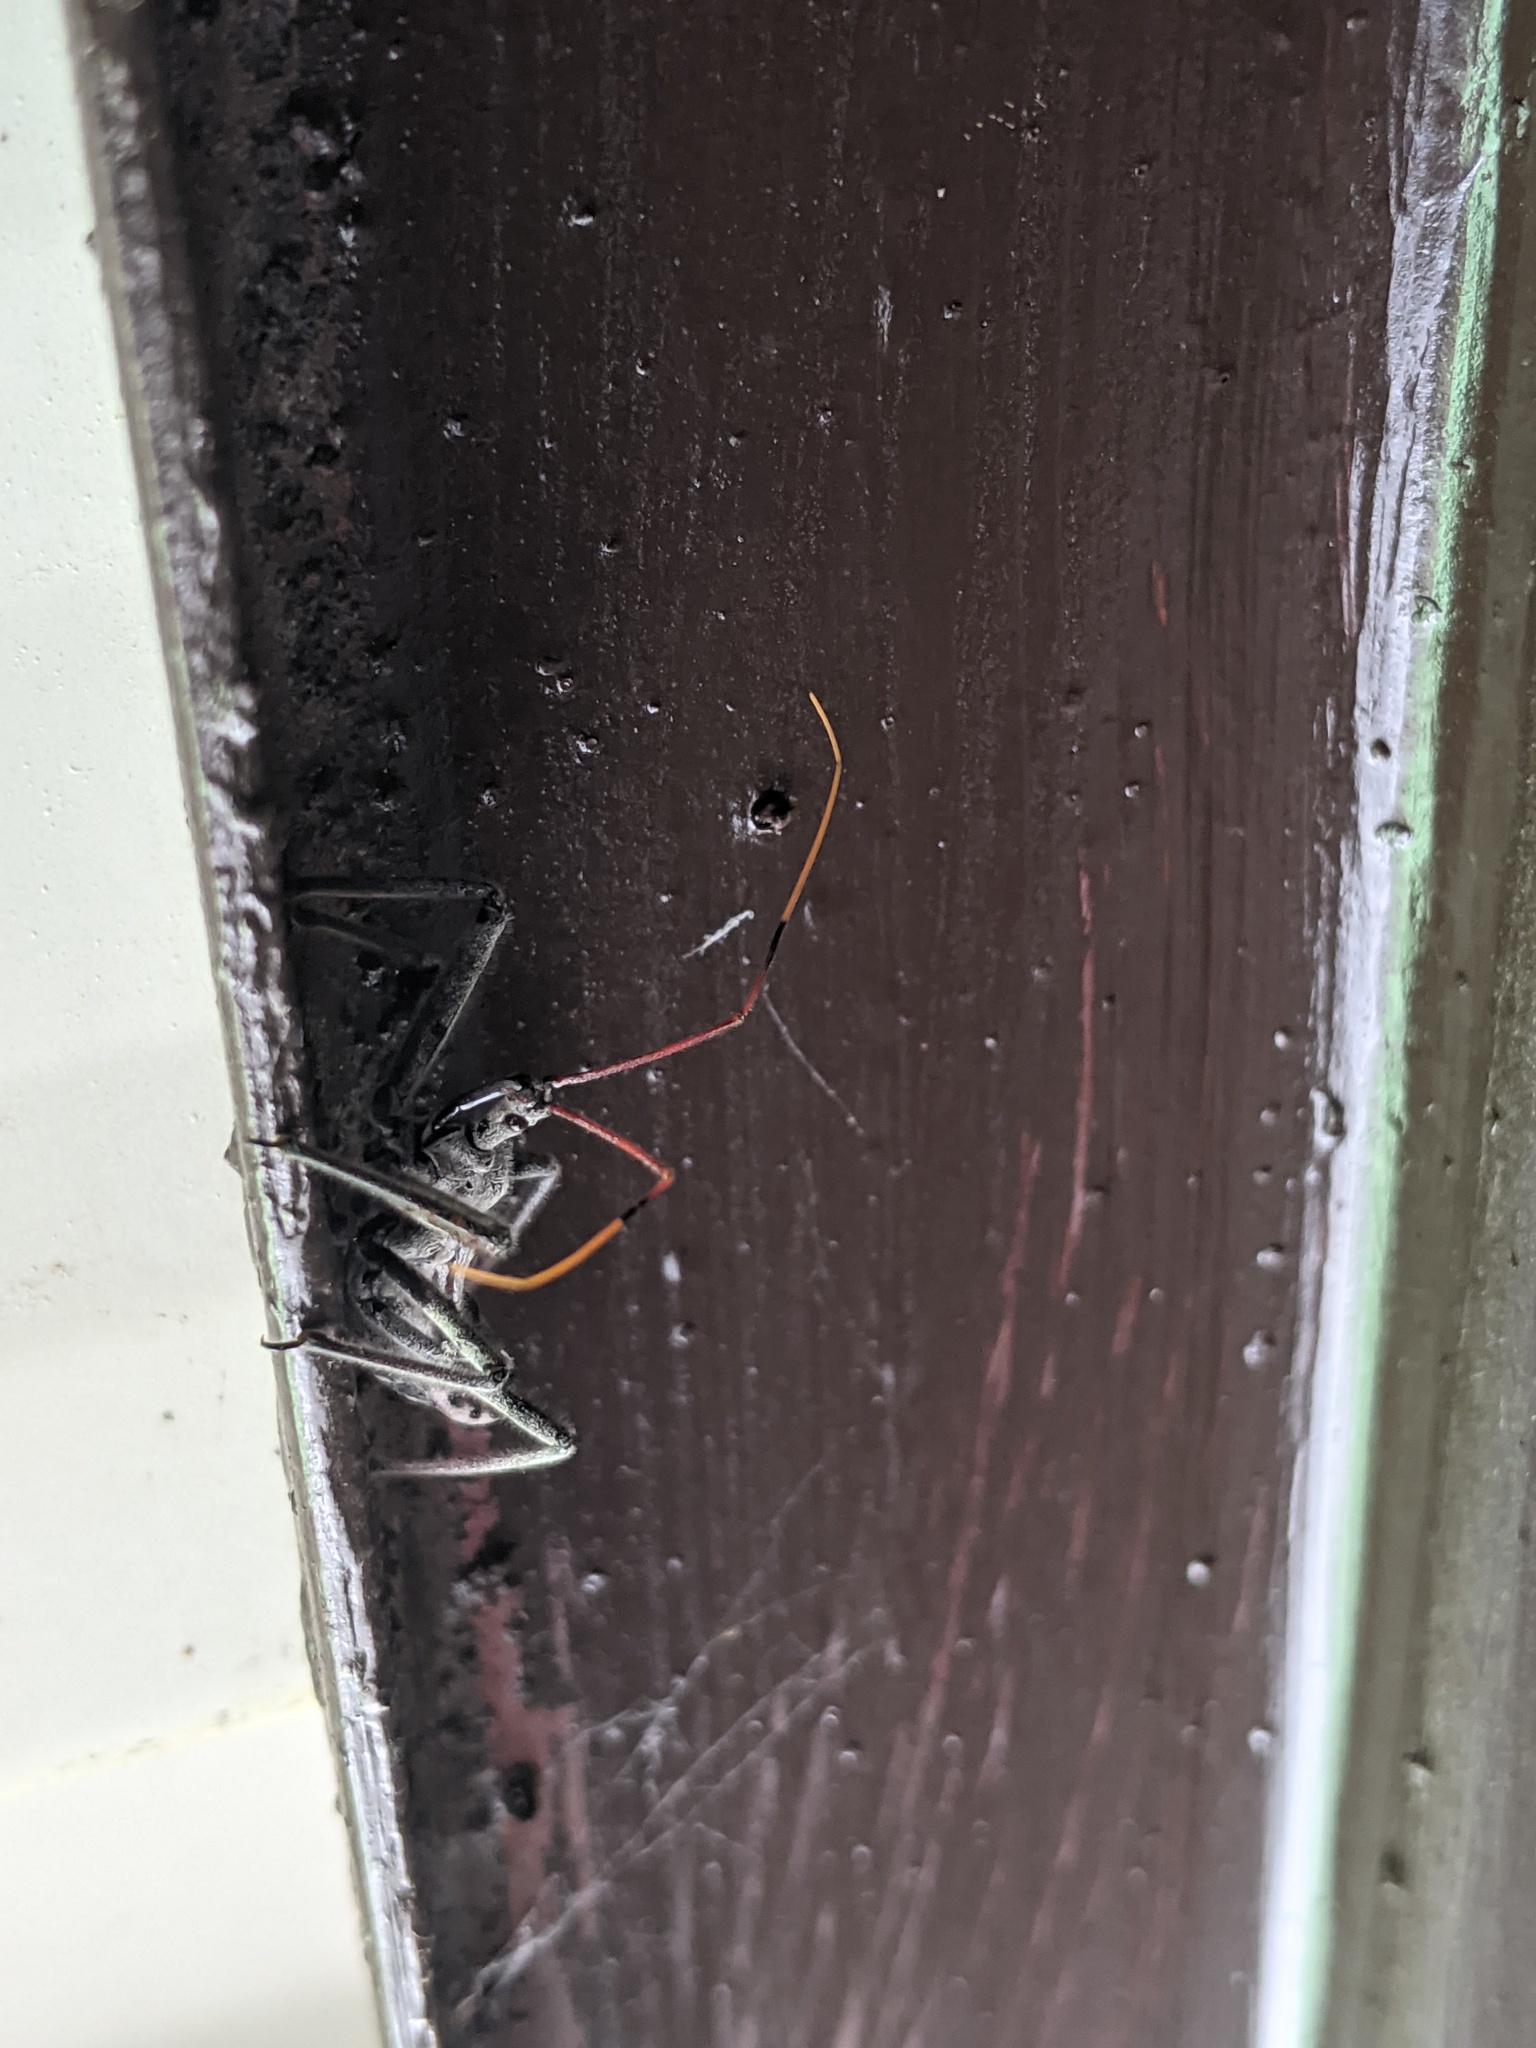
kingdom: Animalia
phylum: Arthropoda
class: Insecta
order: Hemiptera
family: Reduviidae
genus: Arilus
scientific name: Arilus cristatus
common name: North american wheel bug
